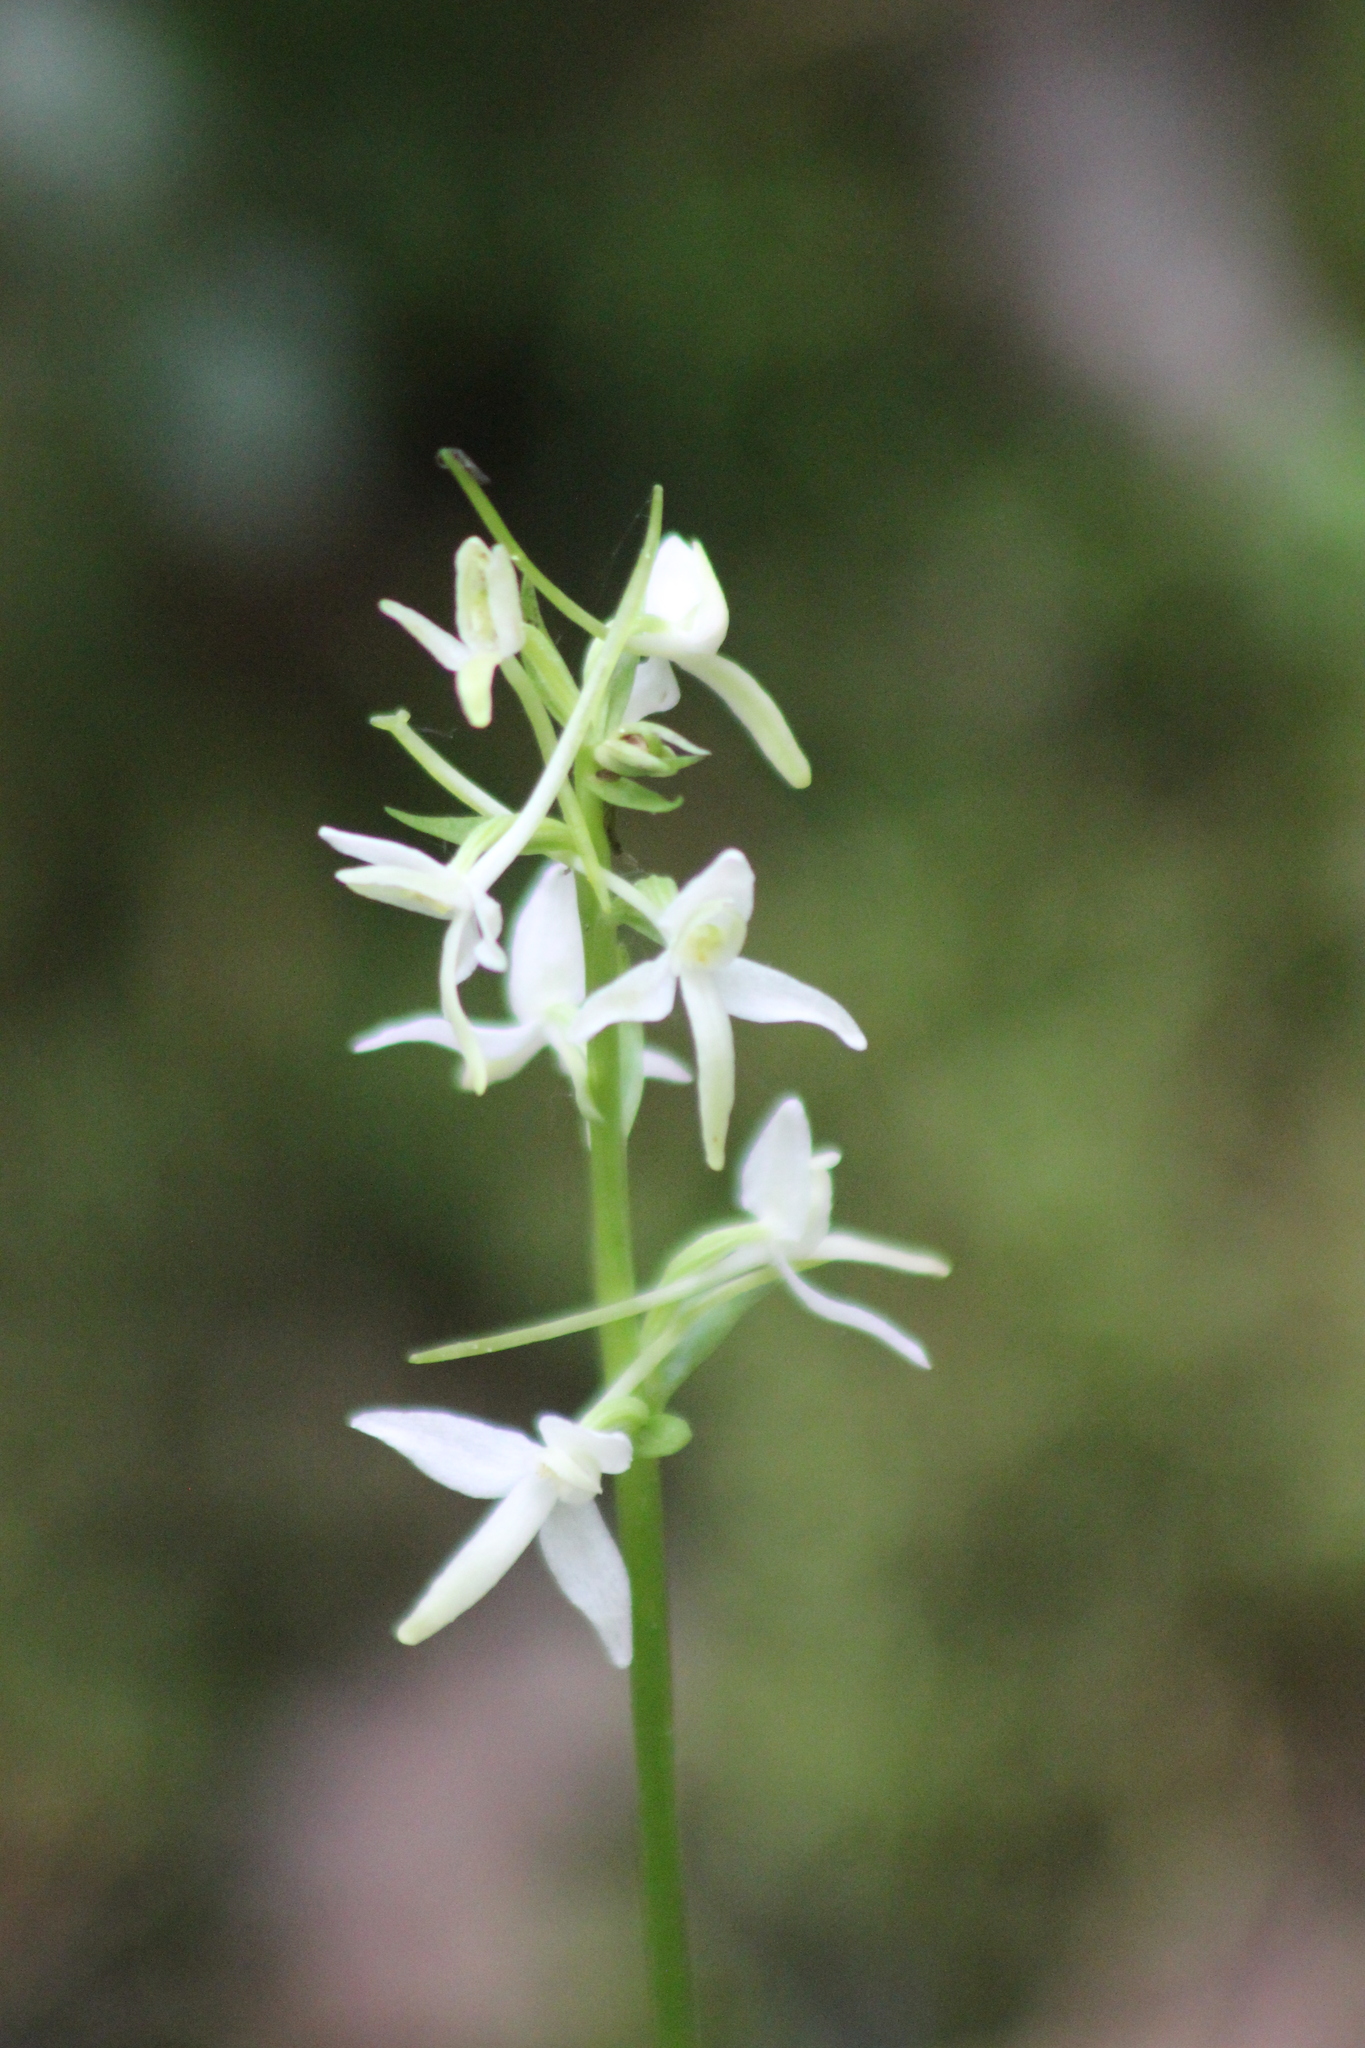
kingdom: Plantae
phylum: Tracheophyta
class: Liliopsida
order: Asparagales
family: Orchidaceae
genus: Platanthera
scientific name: Platanthera bifolia
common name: Lesser butterfly-orchid
